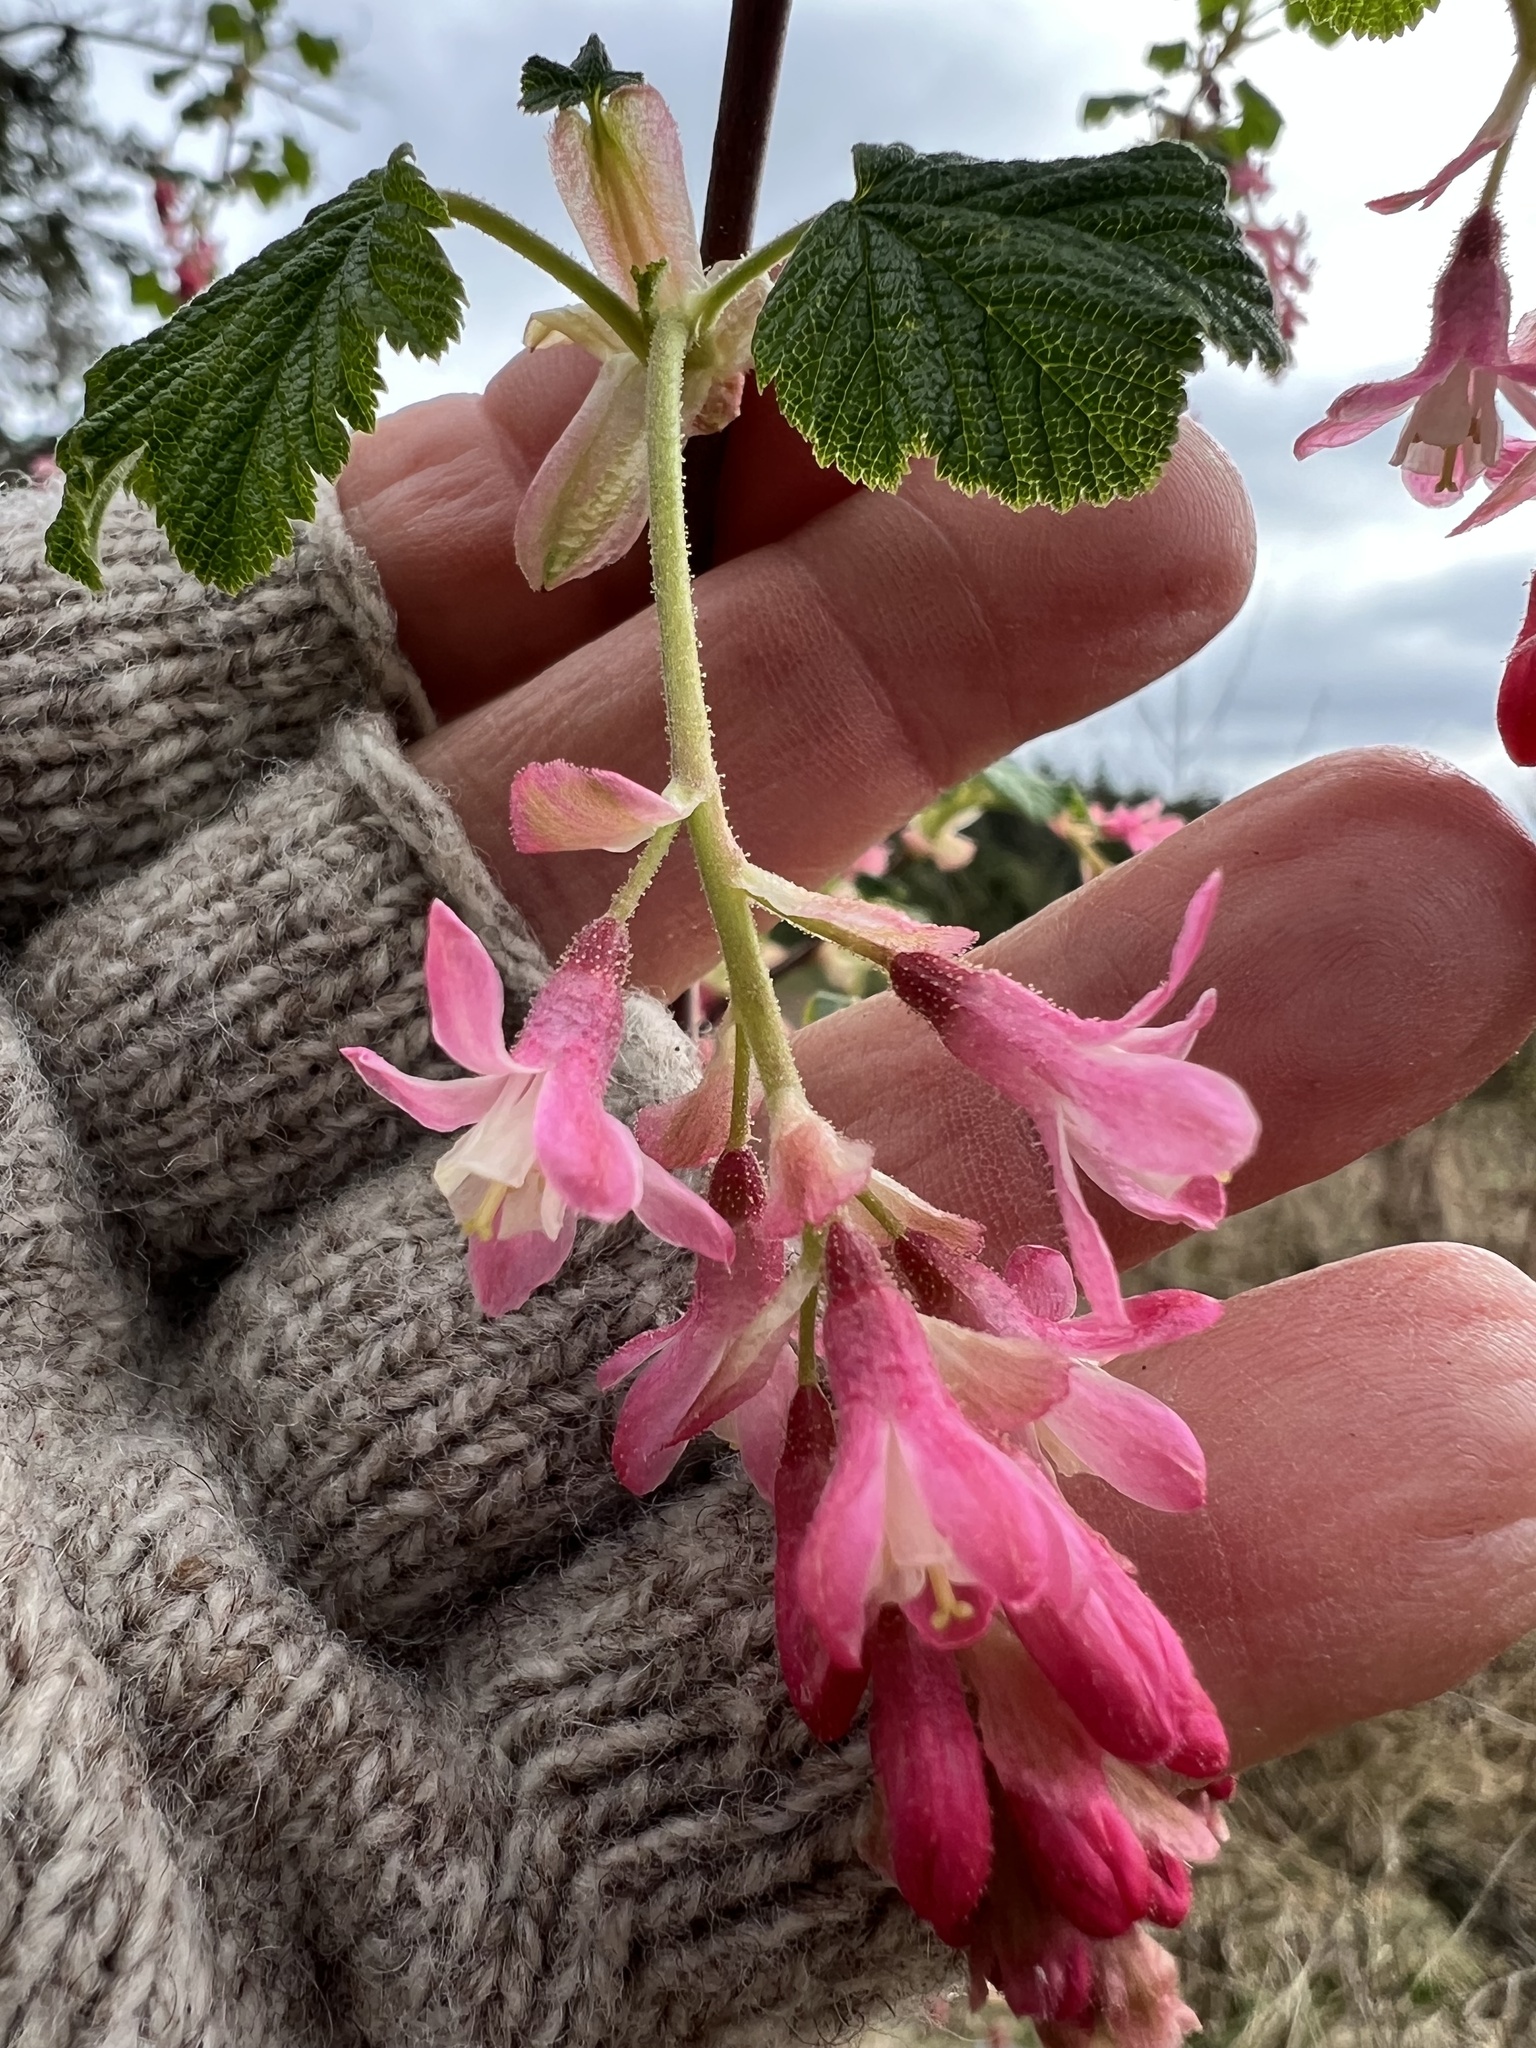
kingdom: Plantae
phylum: Tracheophyta
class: Magnoliopsida
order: Saxifragales
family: Grossulariaceae
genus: Ribes
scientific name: Ribes sanguineum
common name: Flowering currant
